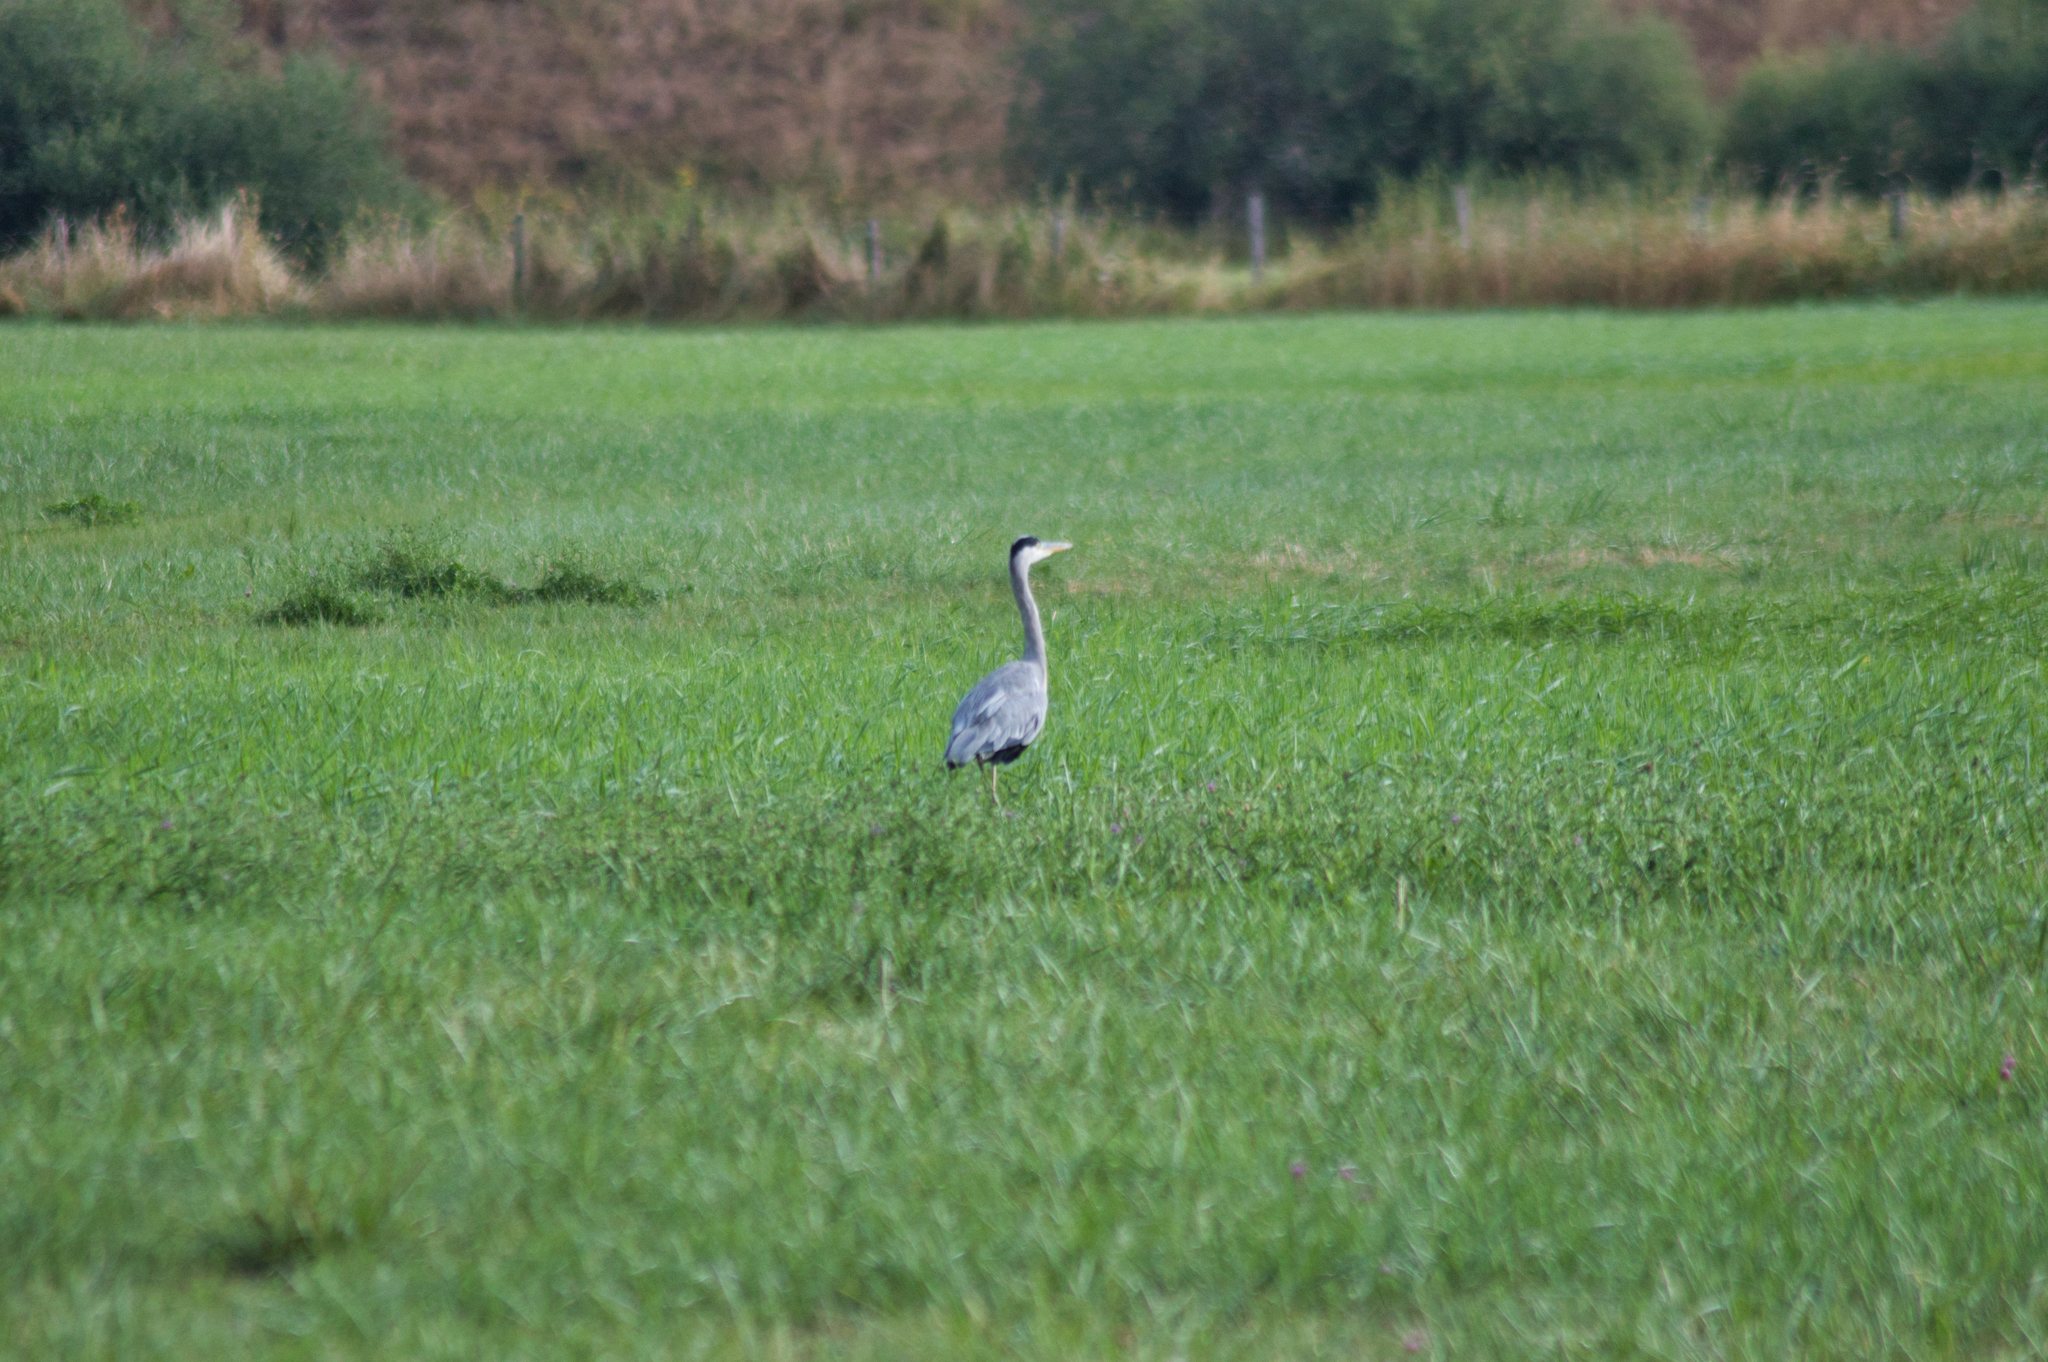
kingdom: Animalia
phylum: Chordata
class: Aves
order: Pelecaniformes
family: Ardeidae
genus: Ardea
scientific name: Ardea cinerea
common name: Grey heron
